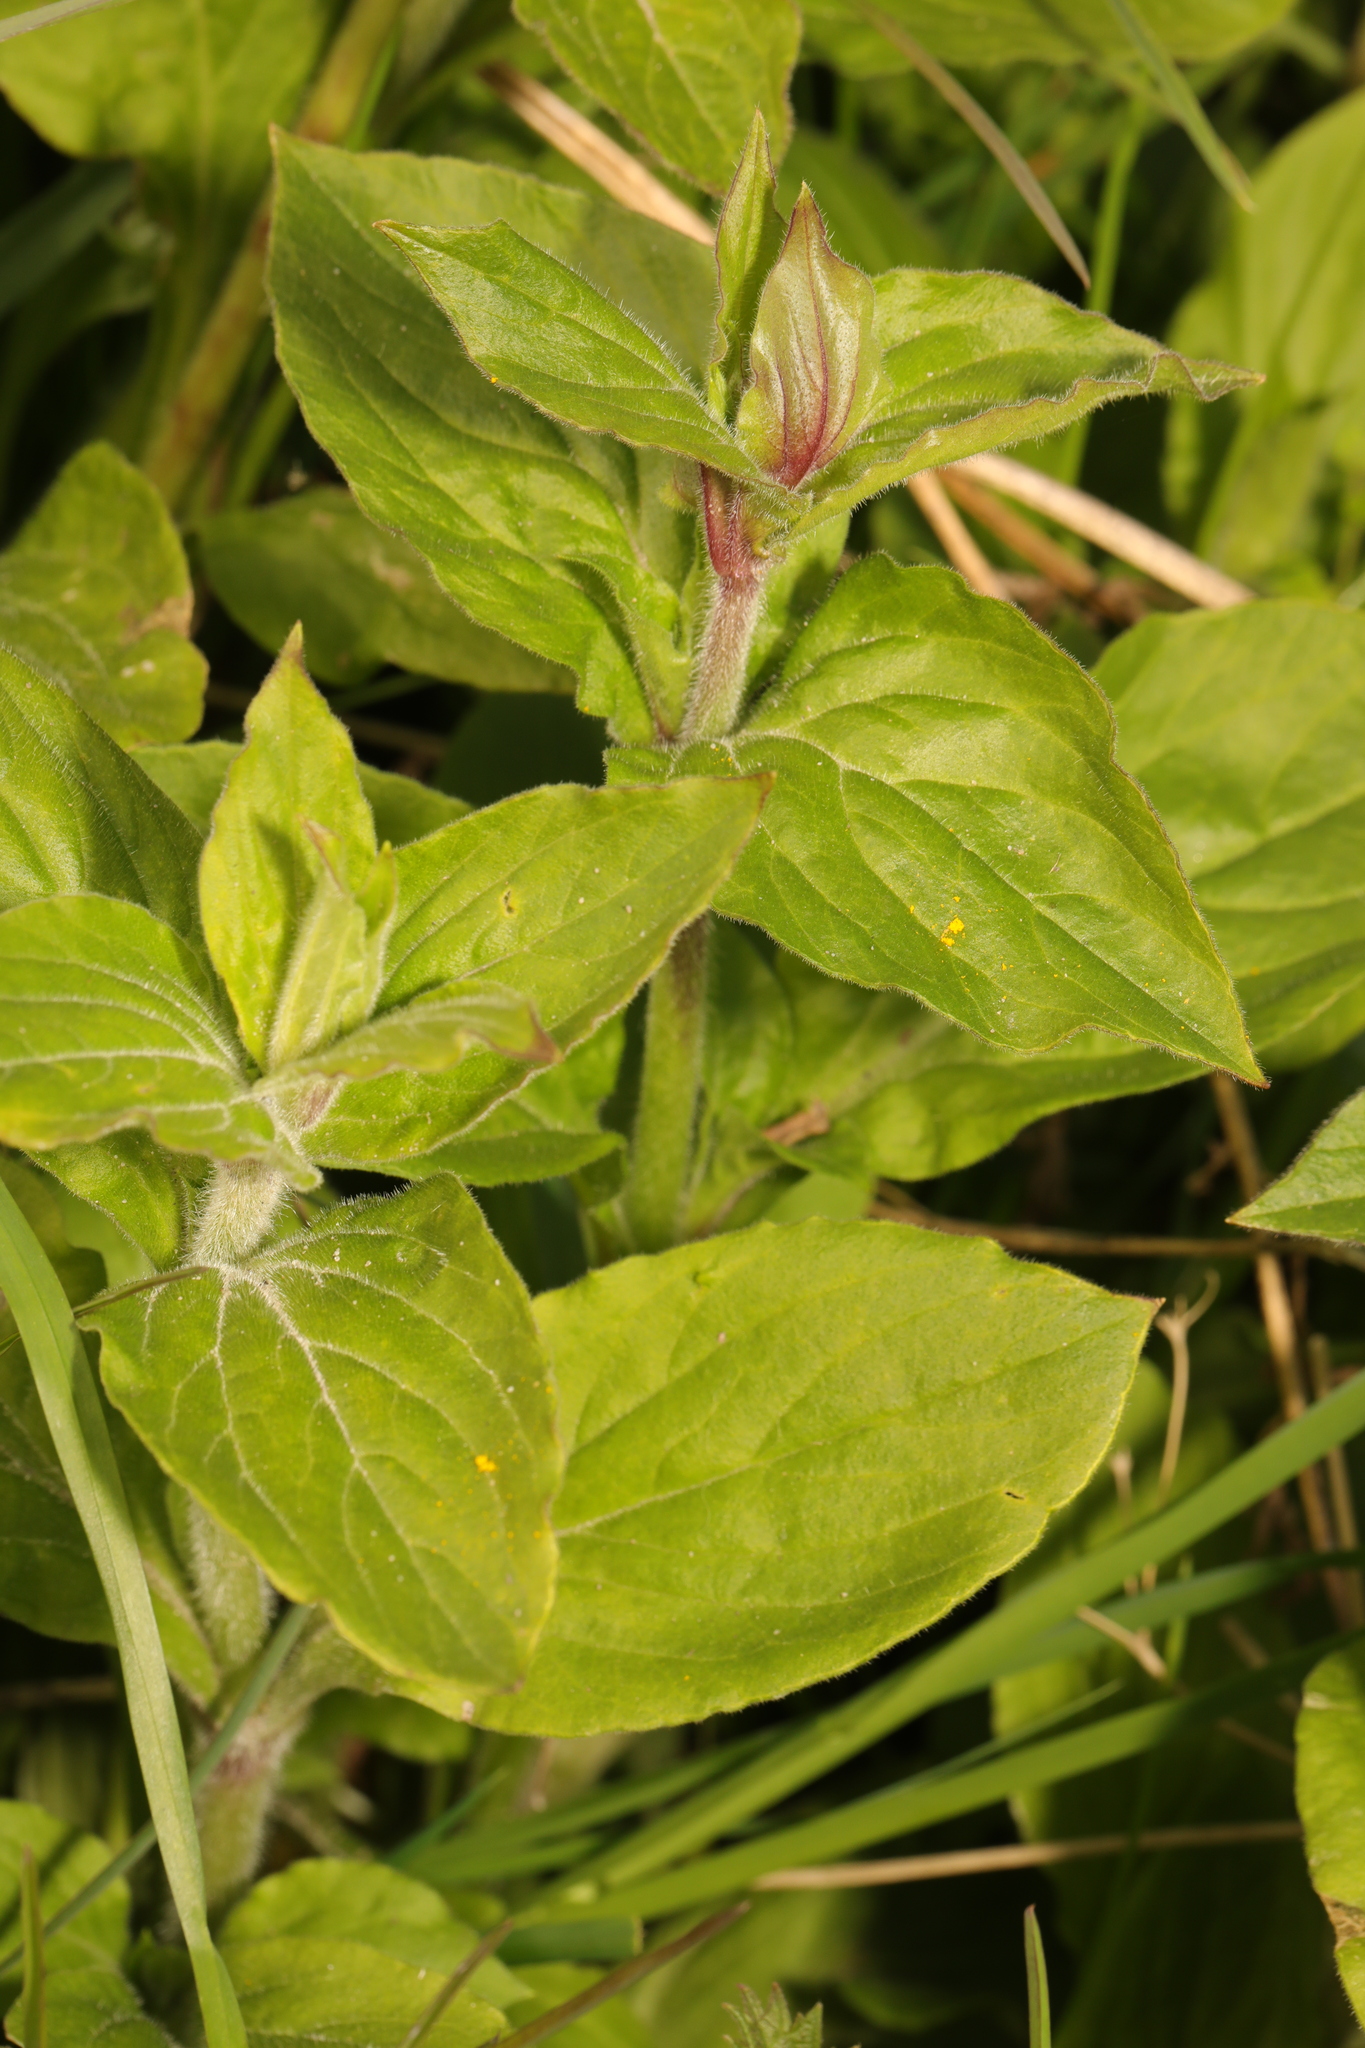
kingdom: Plantae
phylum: Tracheophyta
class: Magnoliopsida
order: Caryophyllales
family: Caryophyllaceae
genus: Silene
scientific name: Silene dioica
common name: Red campion
